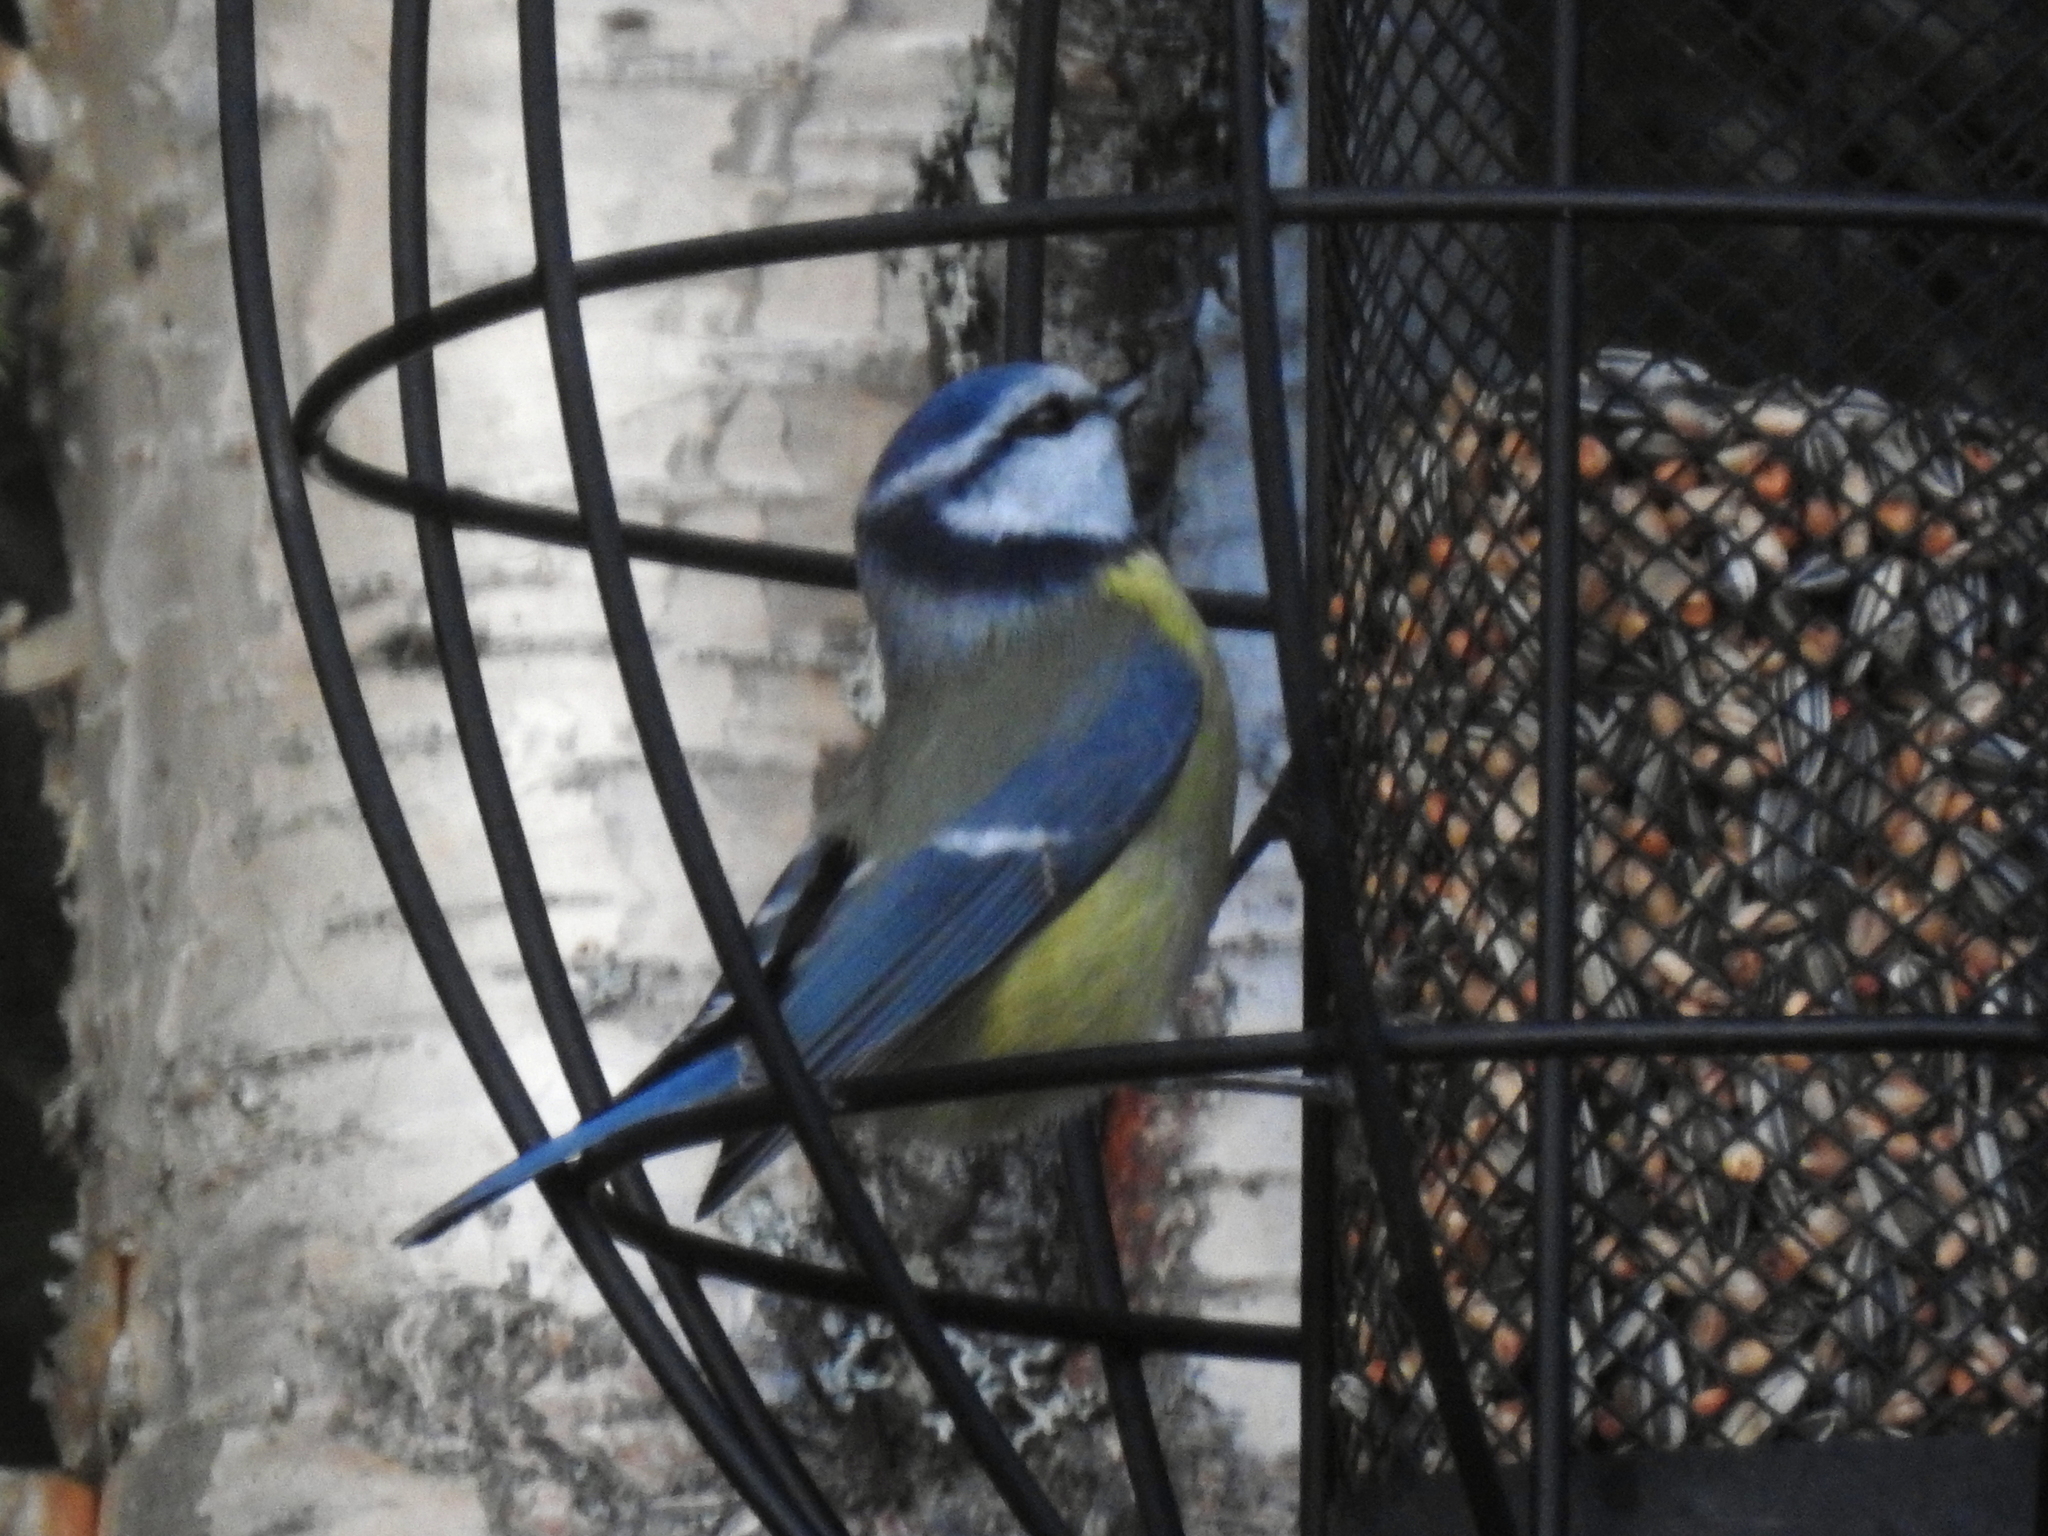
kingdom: Animalia
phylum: Chordata
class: Aves
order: Passeriformes
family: Paridae
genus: Cyanistes
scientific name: Cyanistes caeruleus
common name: Eurasian blue tit
